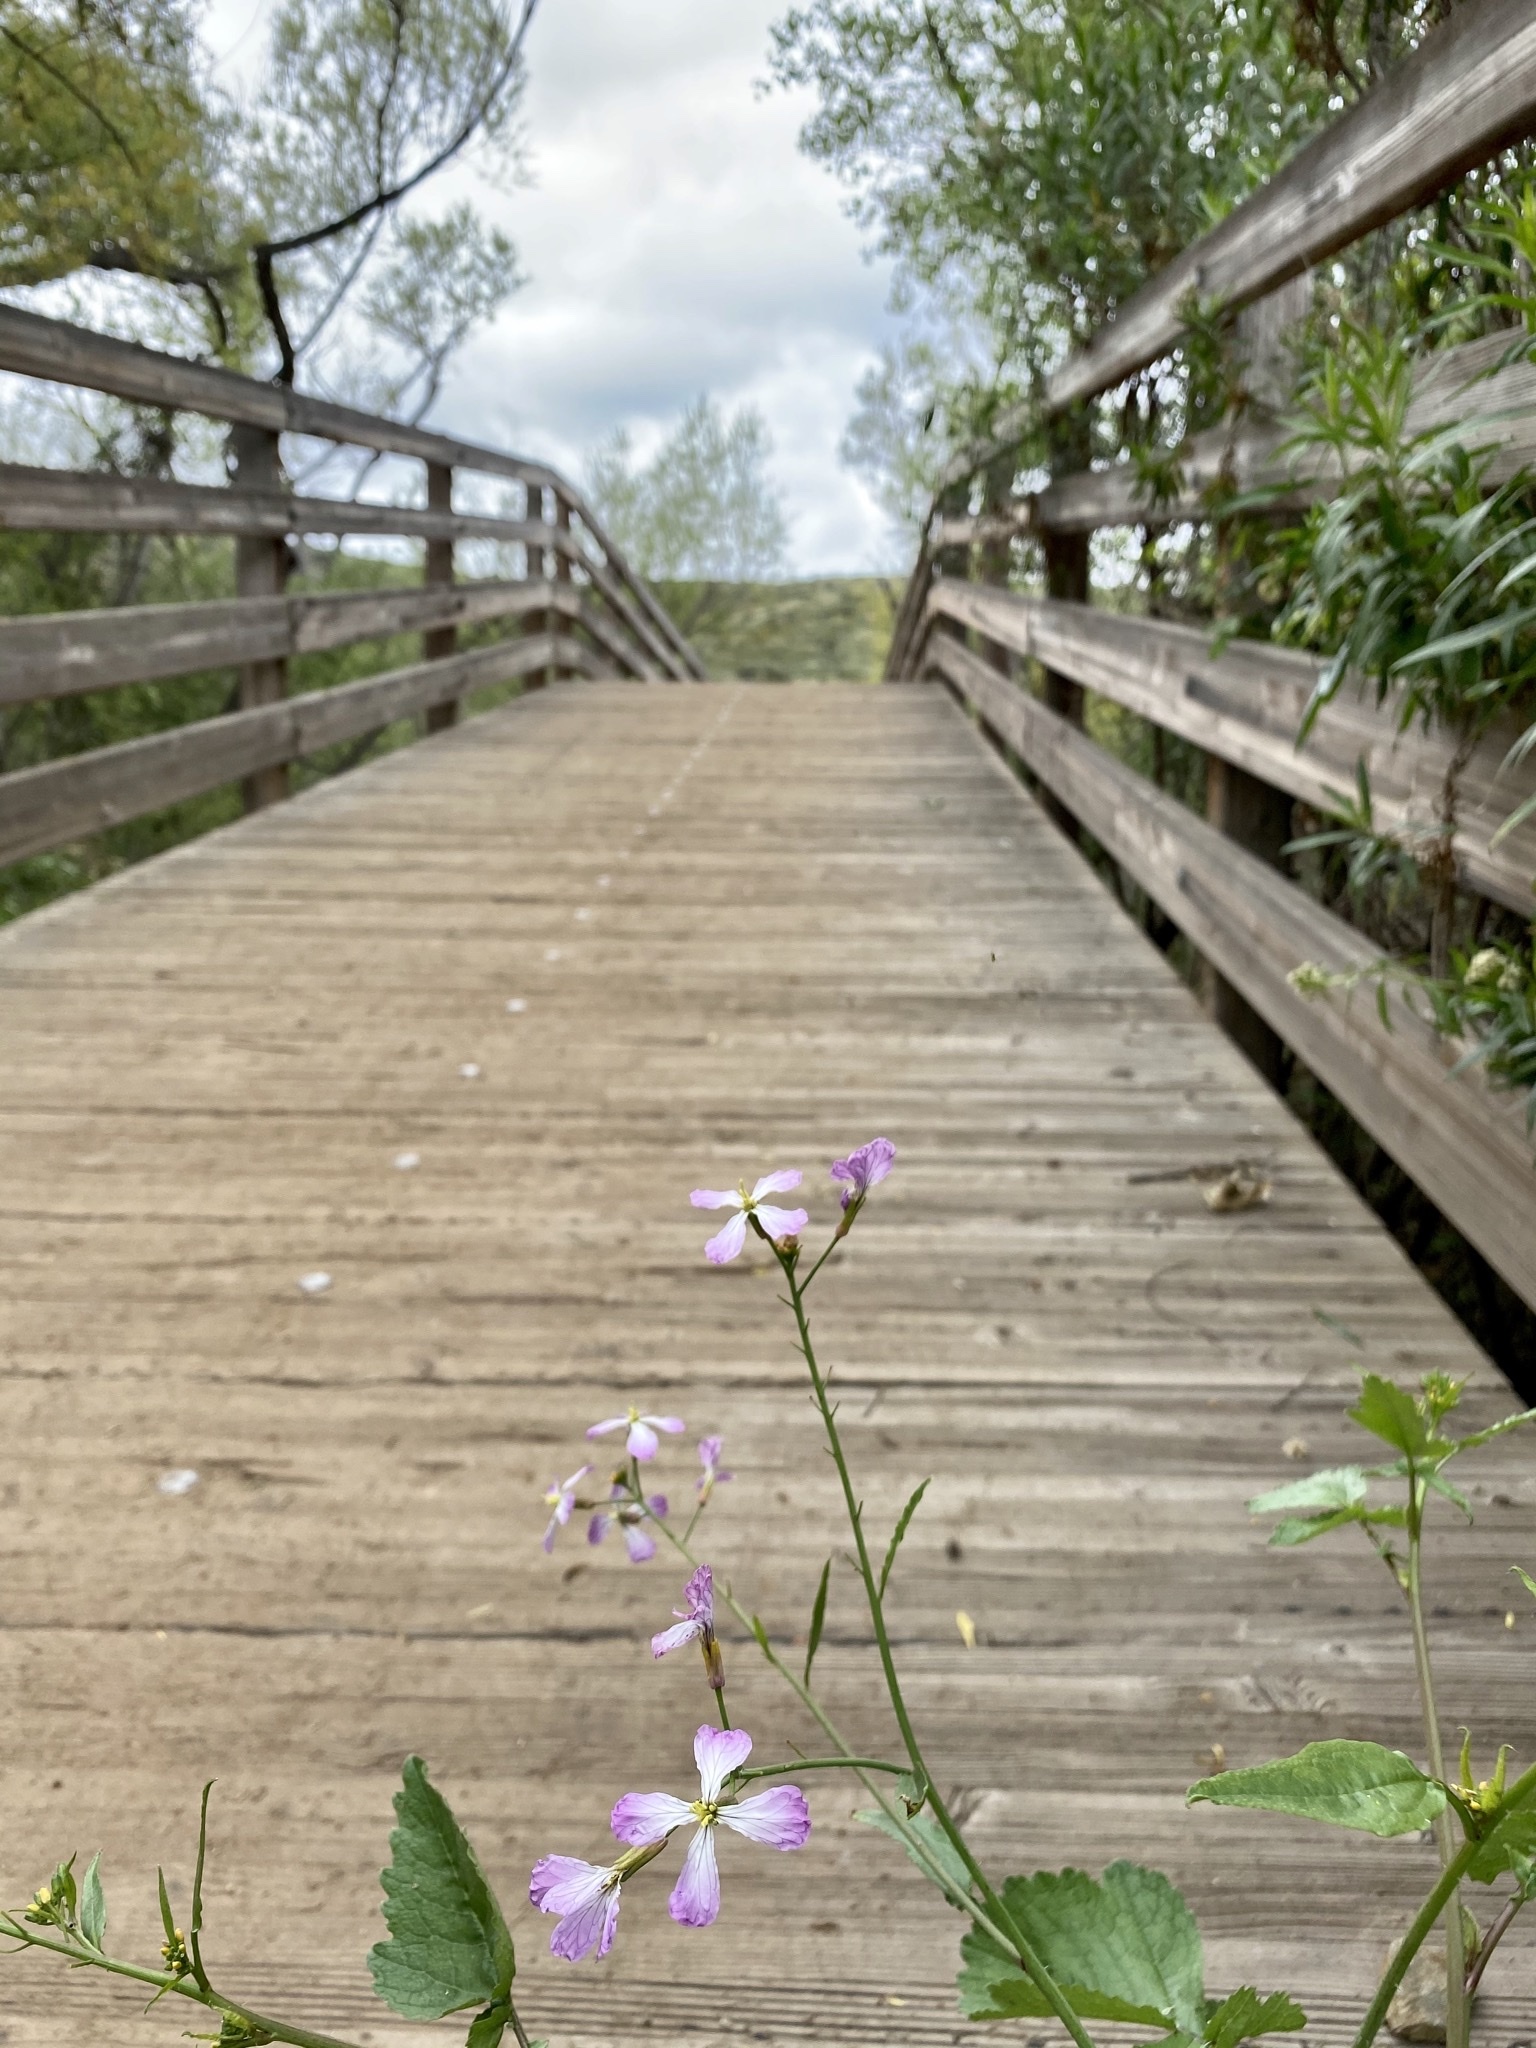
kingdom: Plantae
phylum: Tracheophyta
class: Magnoliopsida
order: Brassicales
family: Brassicaceae
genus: Raphanus
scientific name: Raphanus sativus
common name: Cultivated radish
